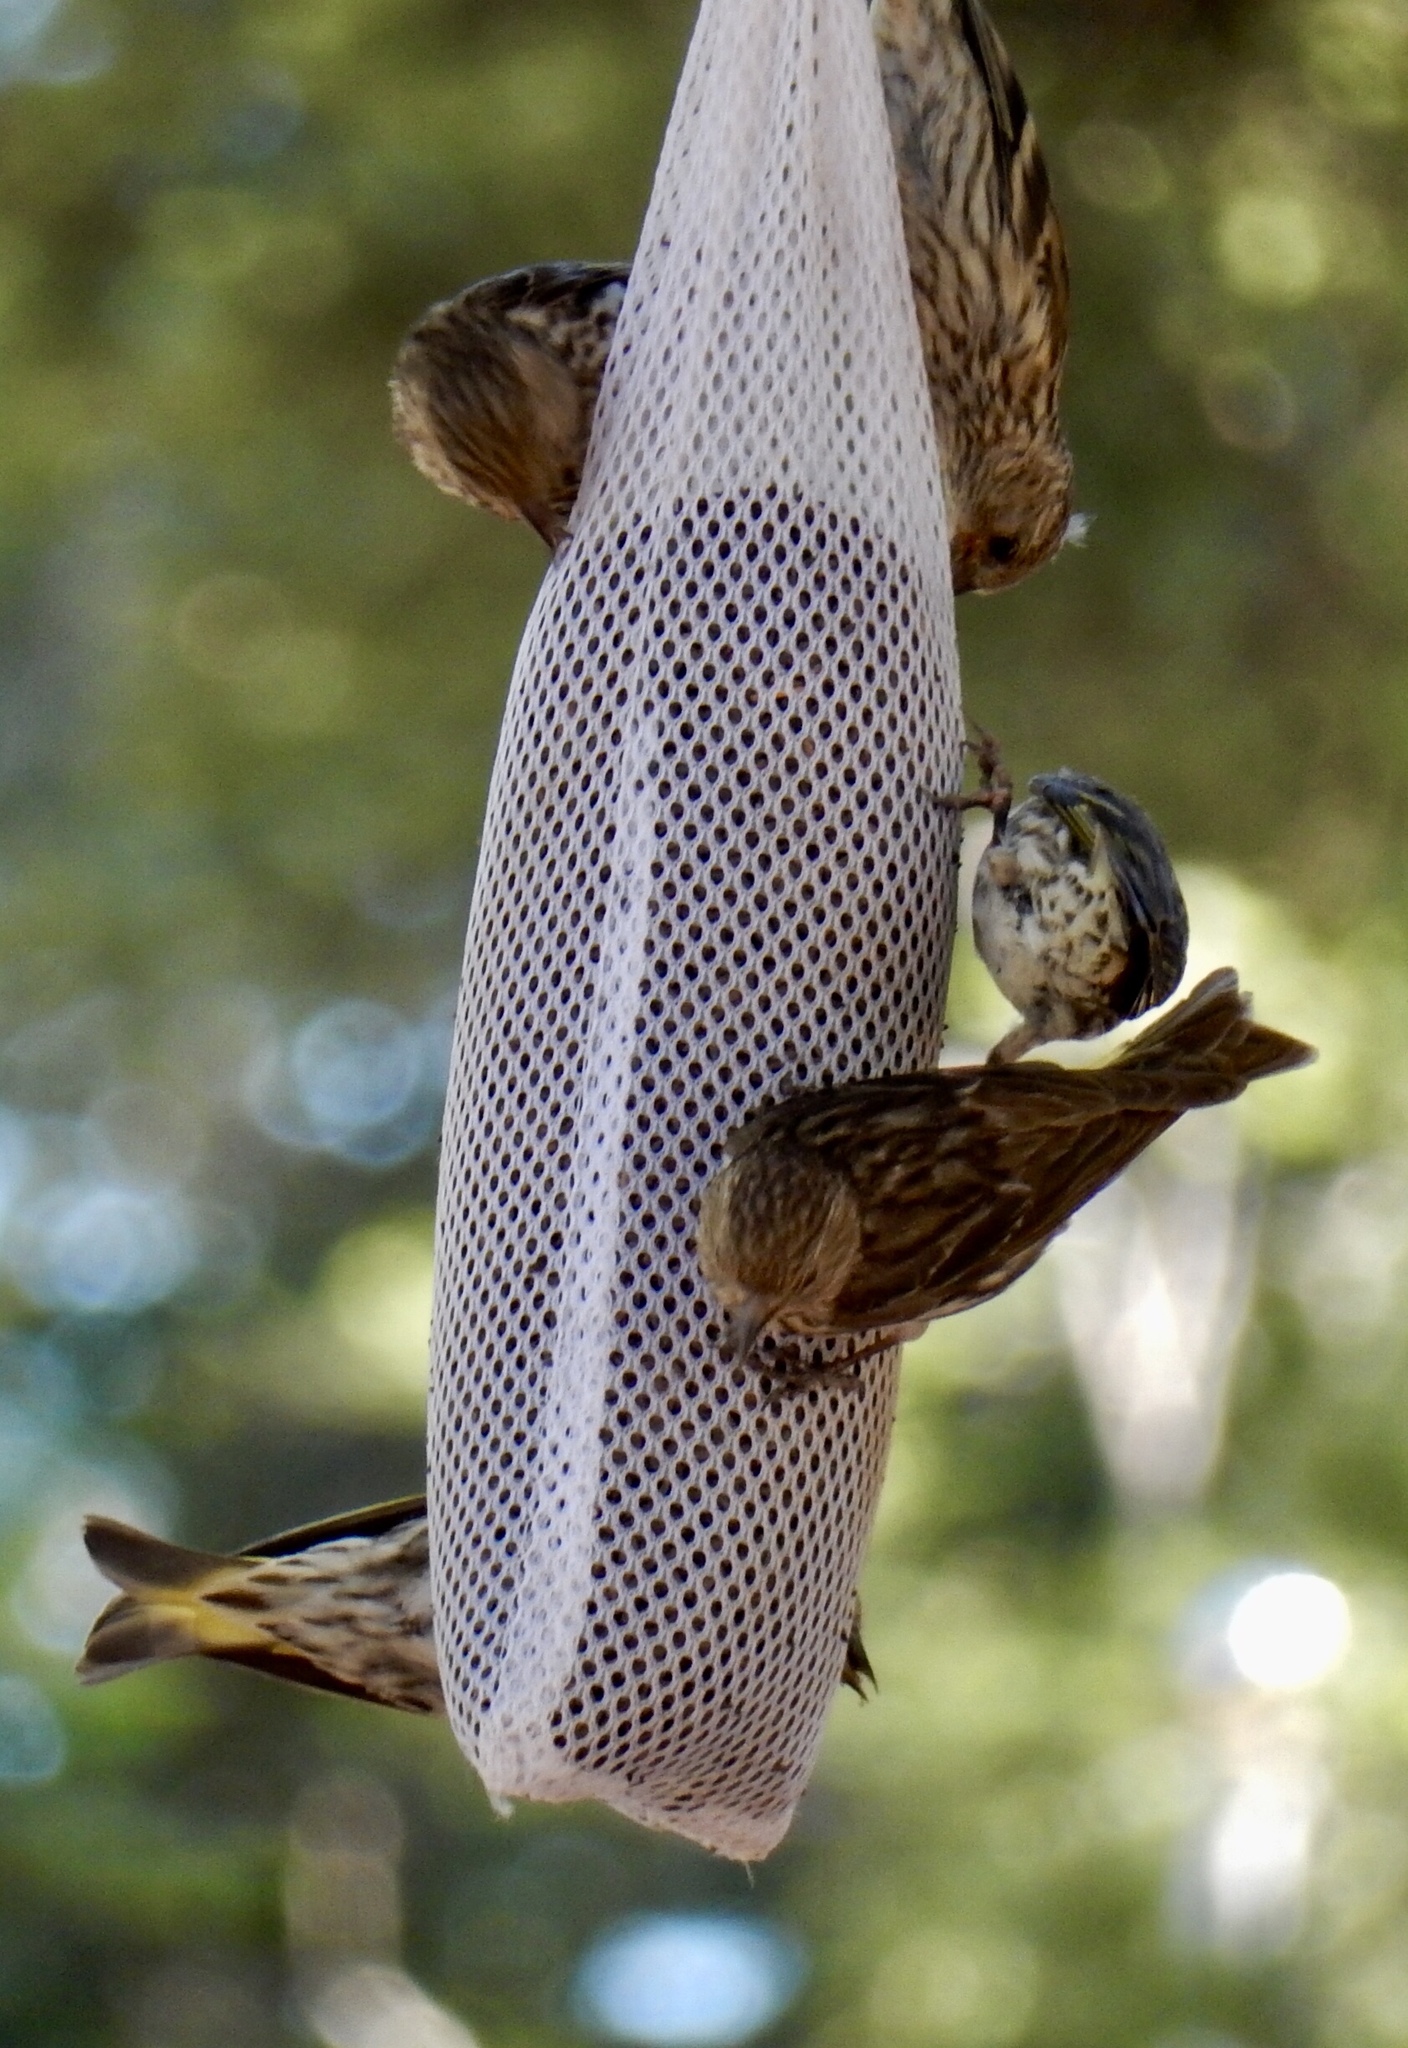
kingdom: Animalia
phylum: Chordata
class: Aves
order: Passeriformes
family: Fringillidae
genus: Spinus
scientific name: Spinus pinus
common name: Pine siskin
